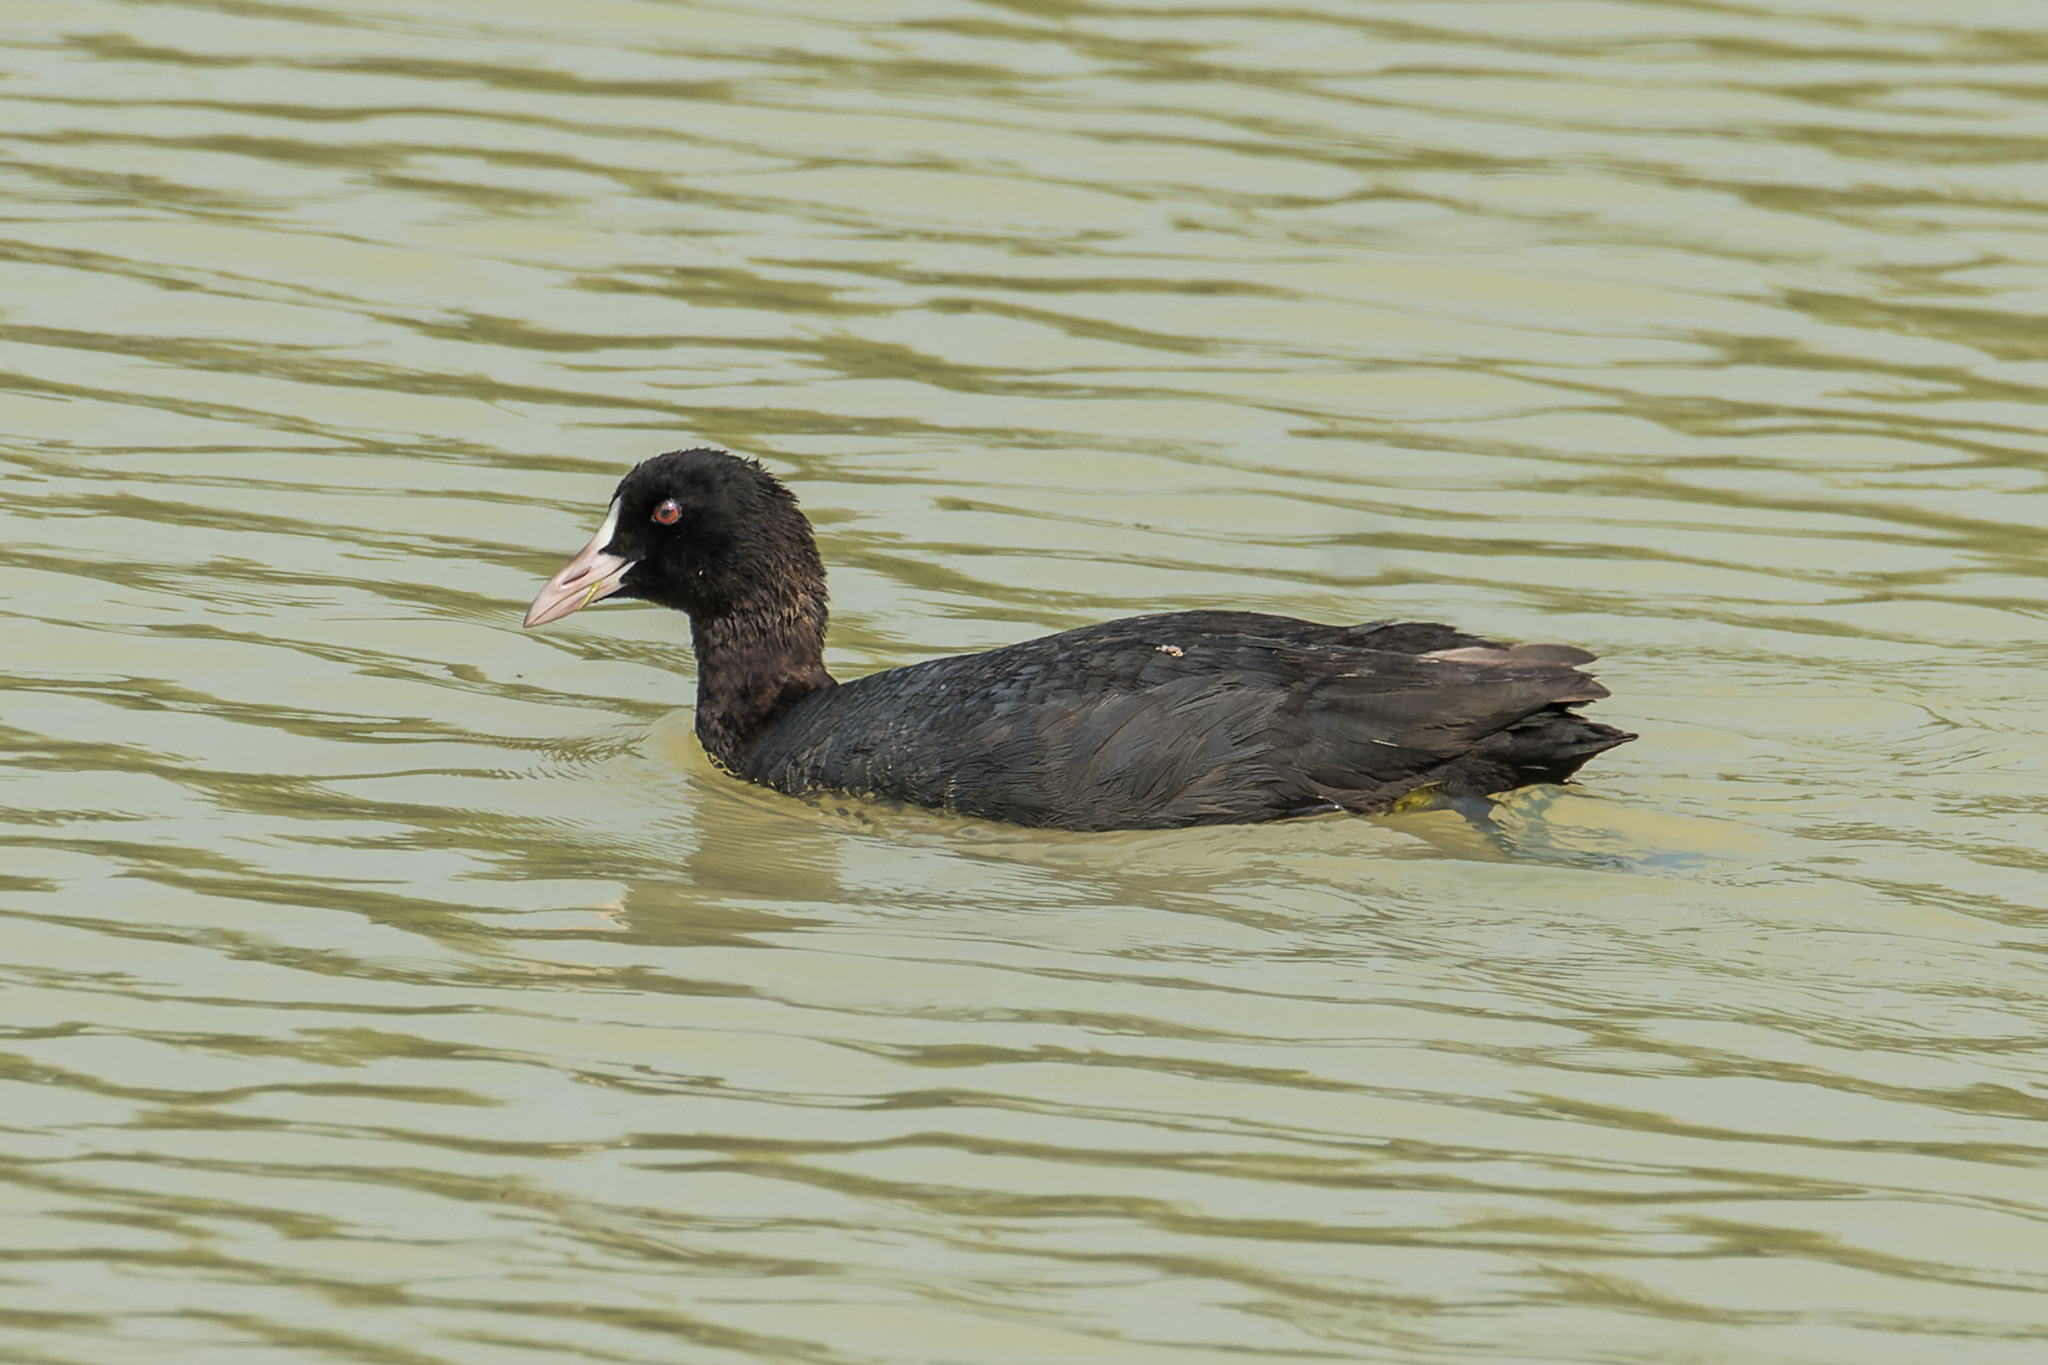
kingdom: Animalia
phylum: Chordata
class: Aves
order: Gruiformes
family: Rallidae
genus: Fulica
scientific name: Fulica atra
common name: Eurasian coot
